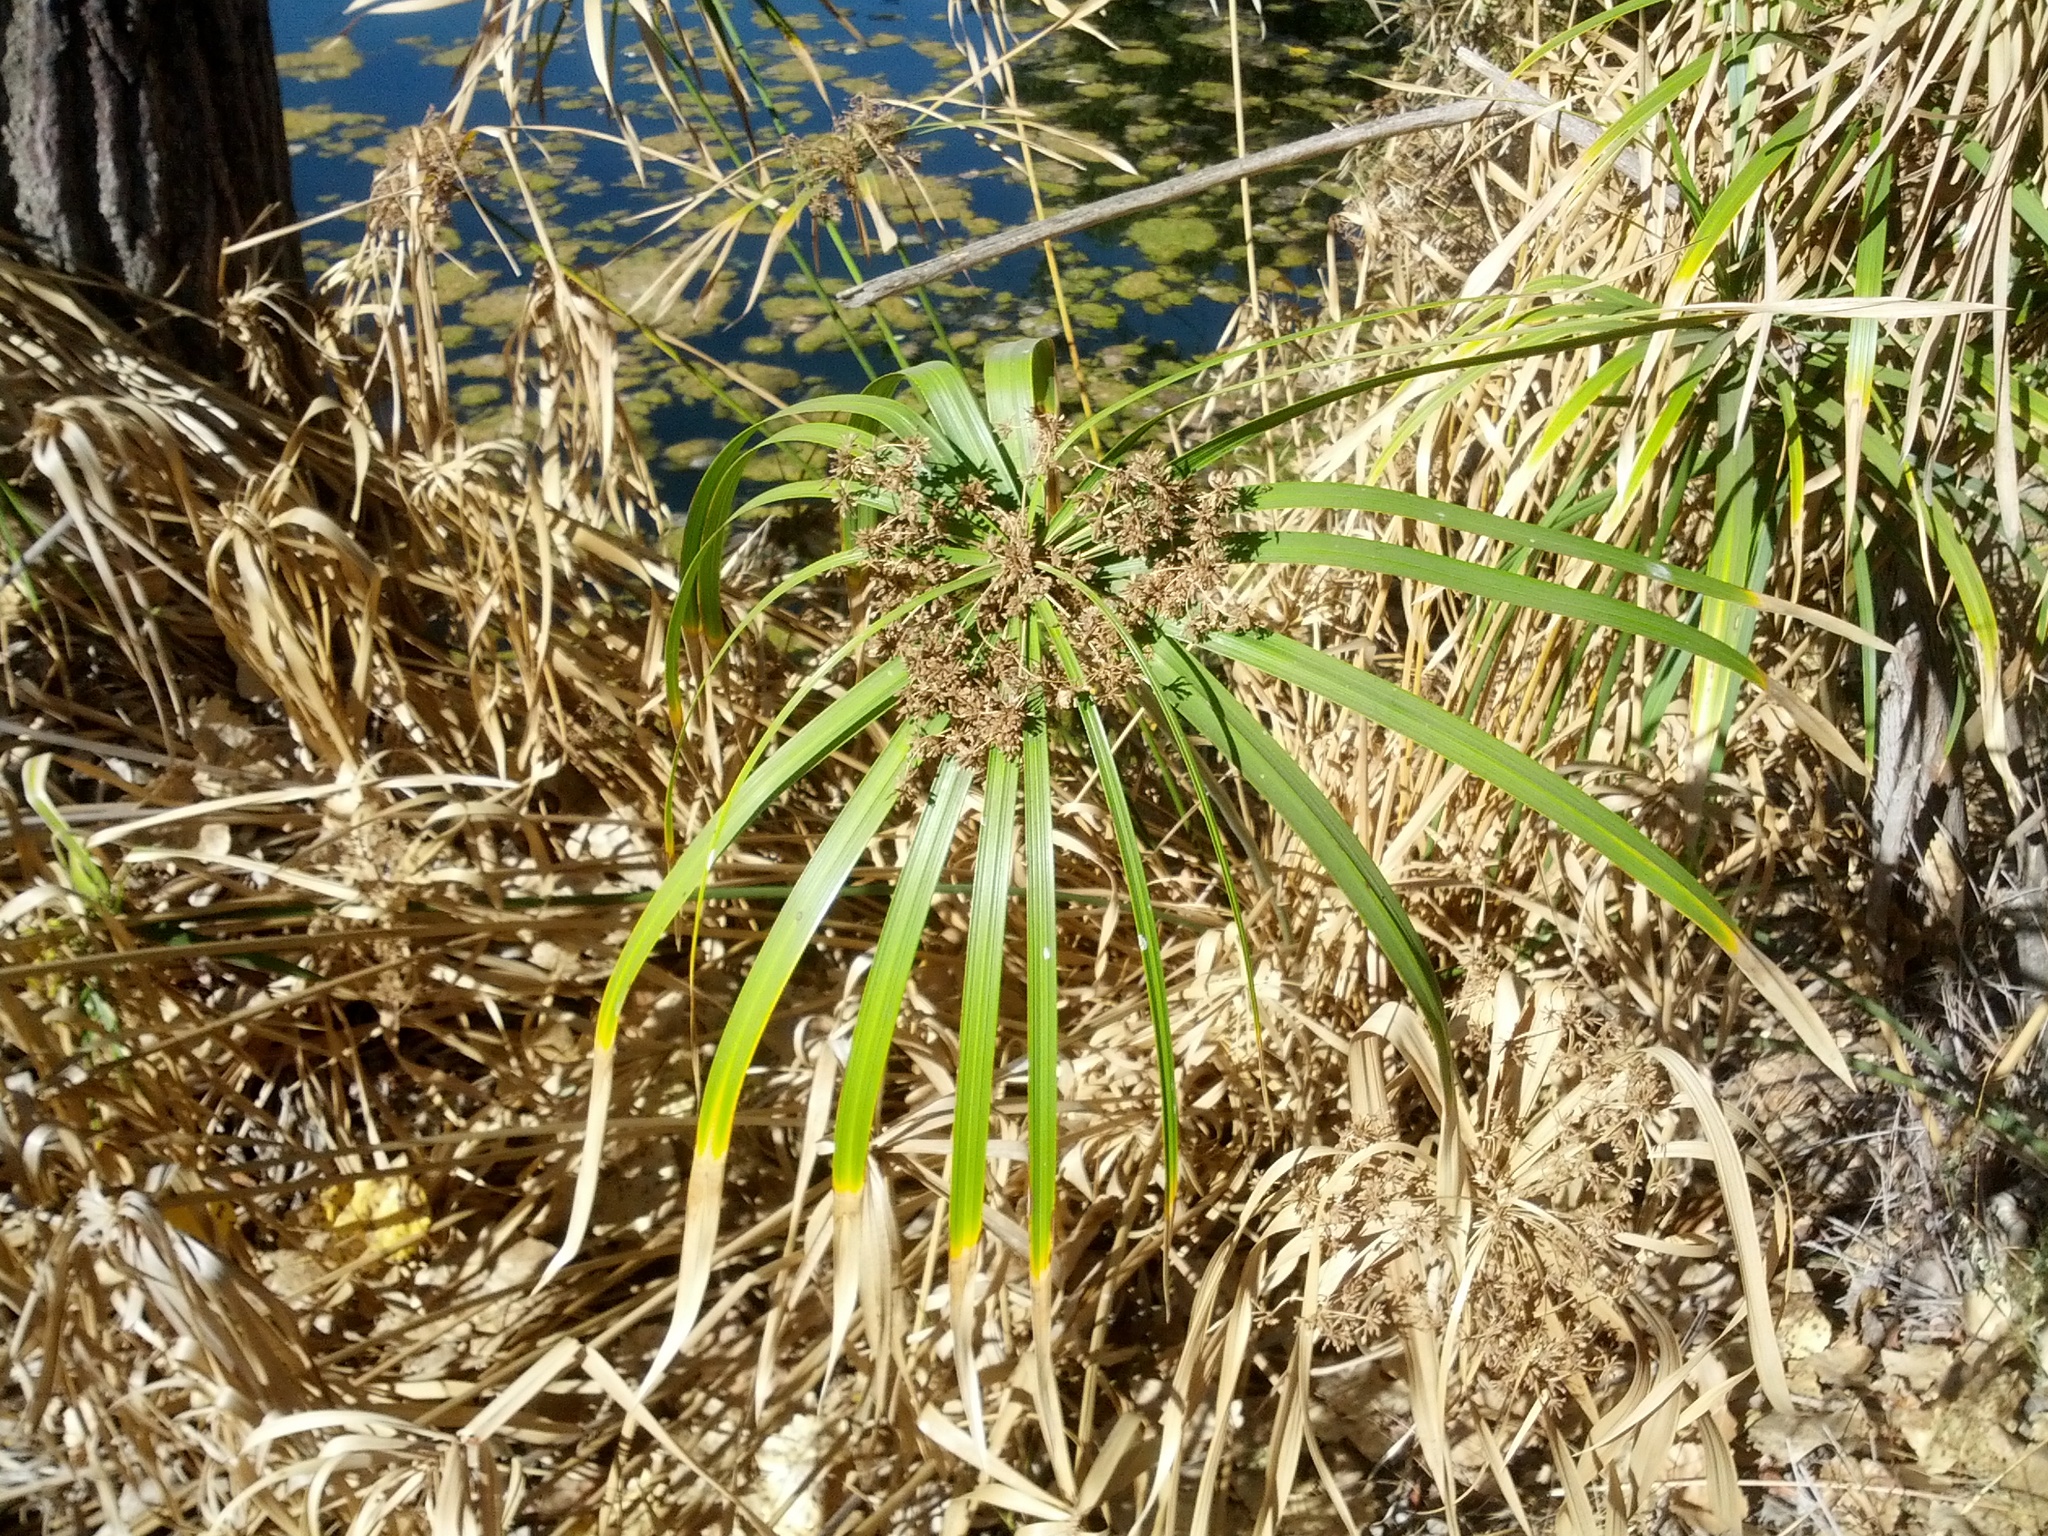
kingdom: Plantae
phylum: Tracheophyta
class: Liliopsida
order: Poales
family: Cyperaceae
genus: Cyperus
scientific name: Cyperus alternifolius
